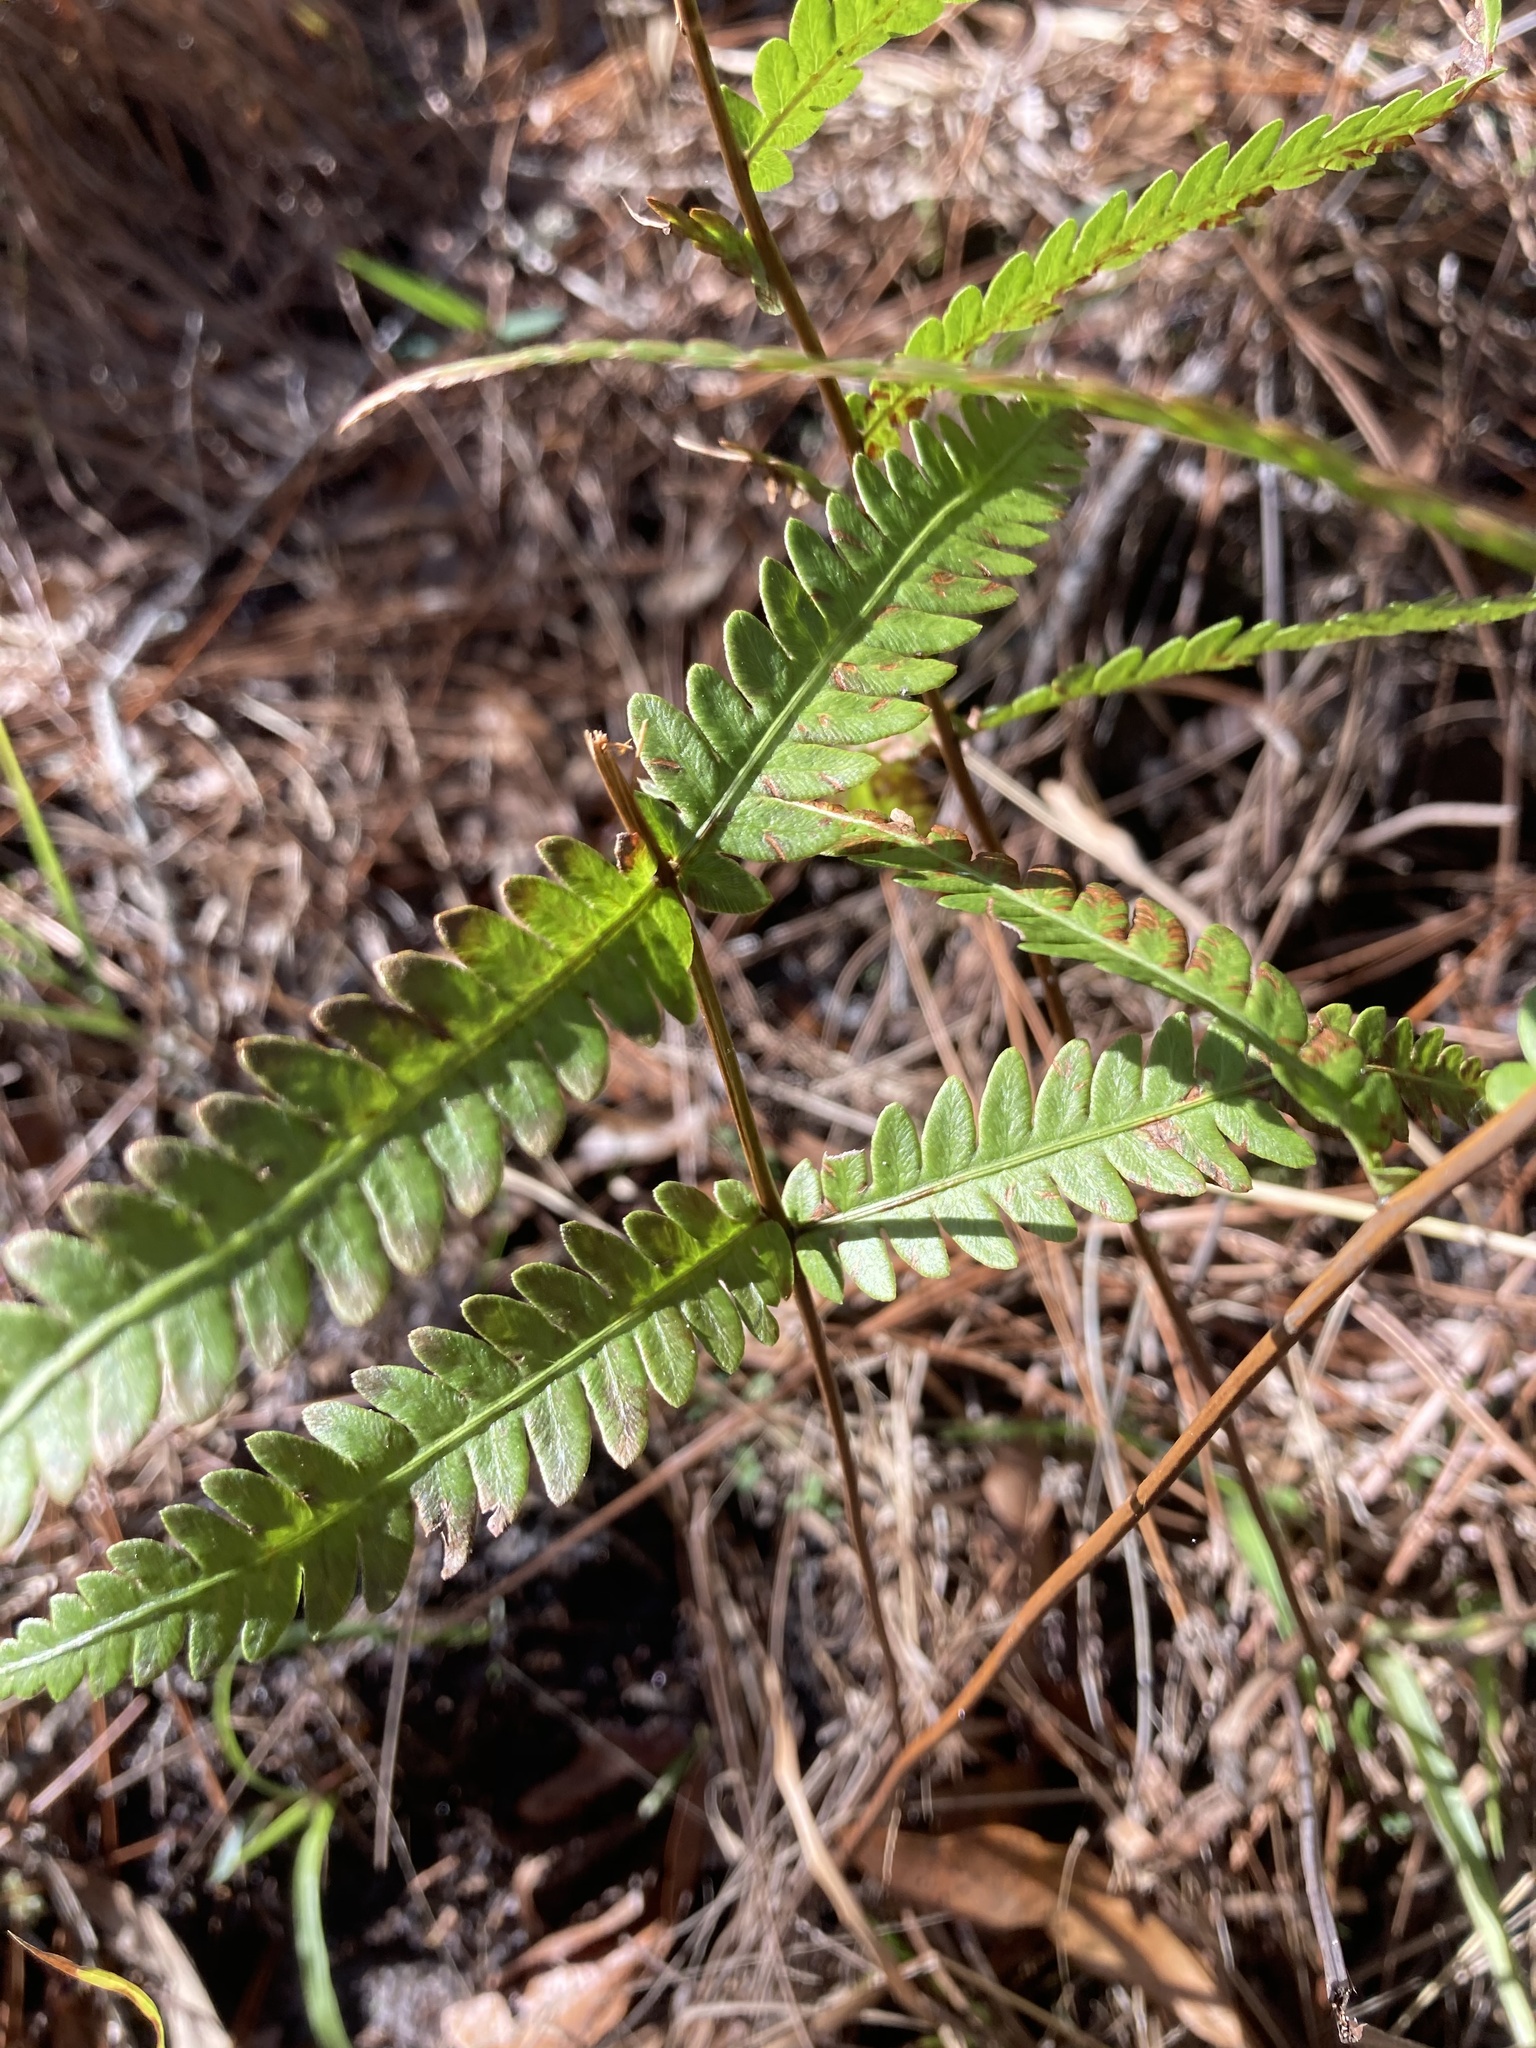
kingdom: Plantae
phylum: Tracheophyta
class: Polypodiopsida
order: Polypodiales
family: Blechnaceae
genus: Anchistea
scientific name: Anchistea virginica
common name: Virginia chain fern
